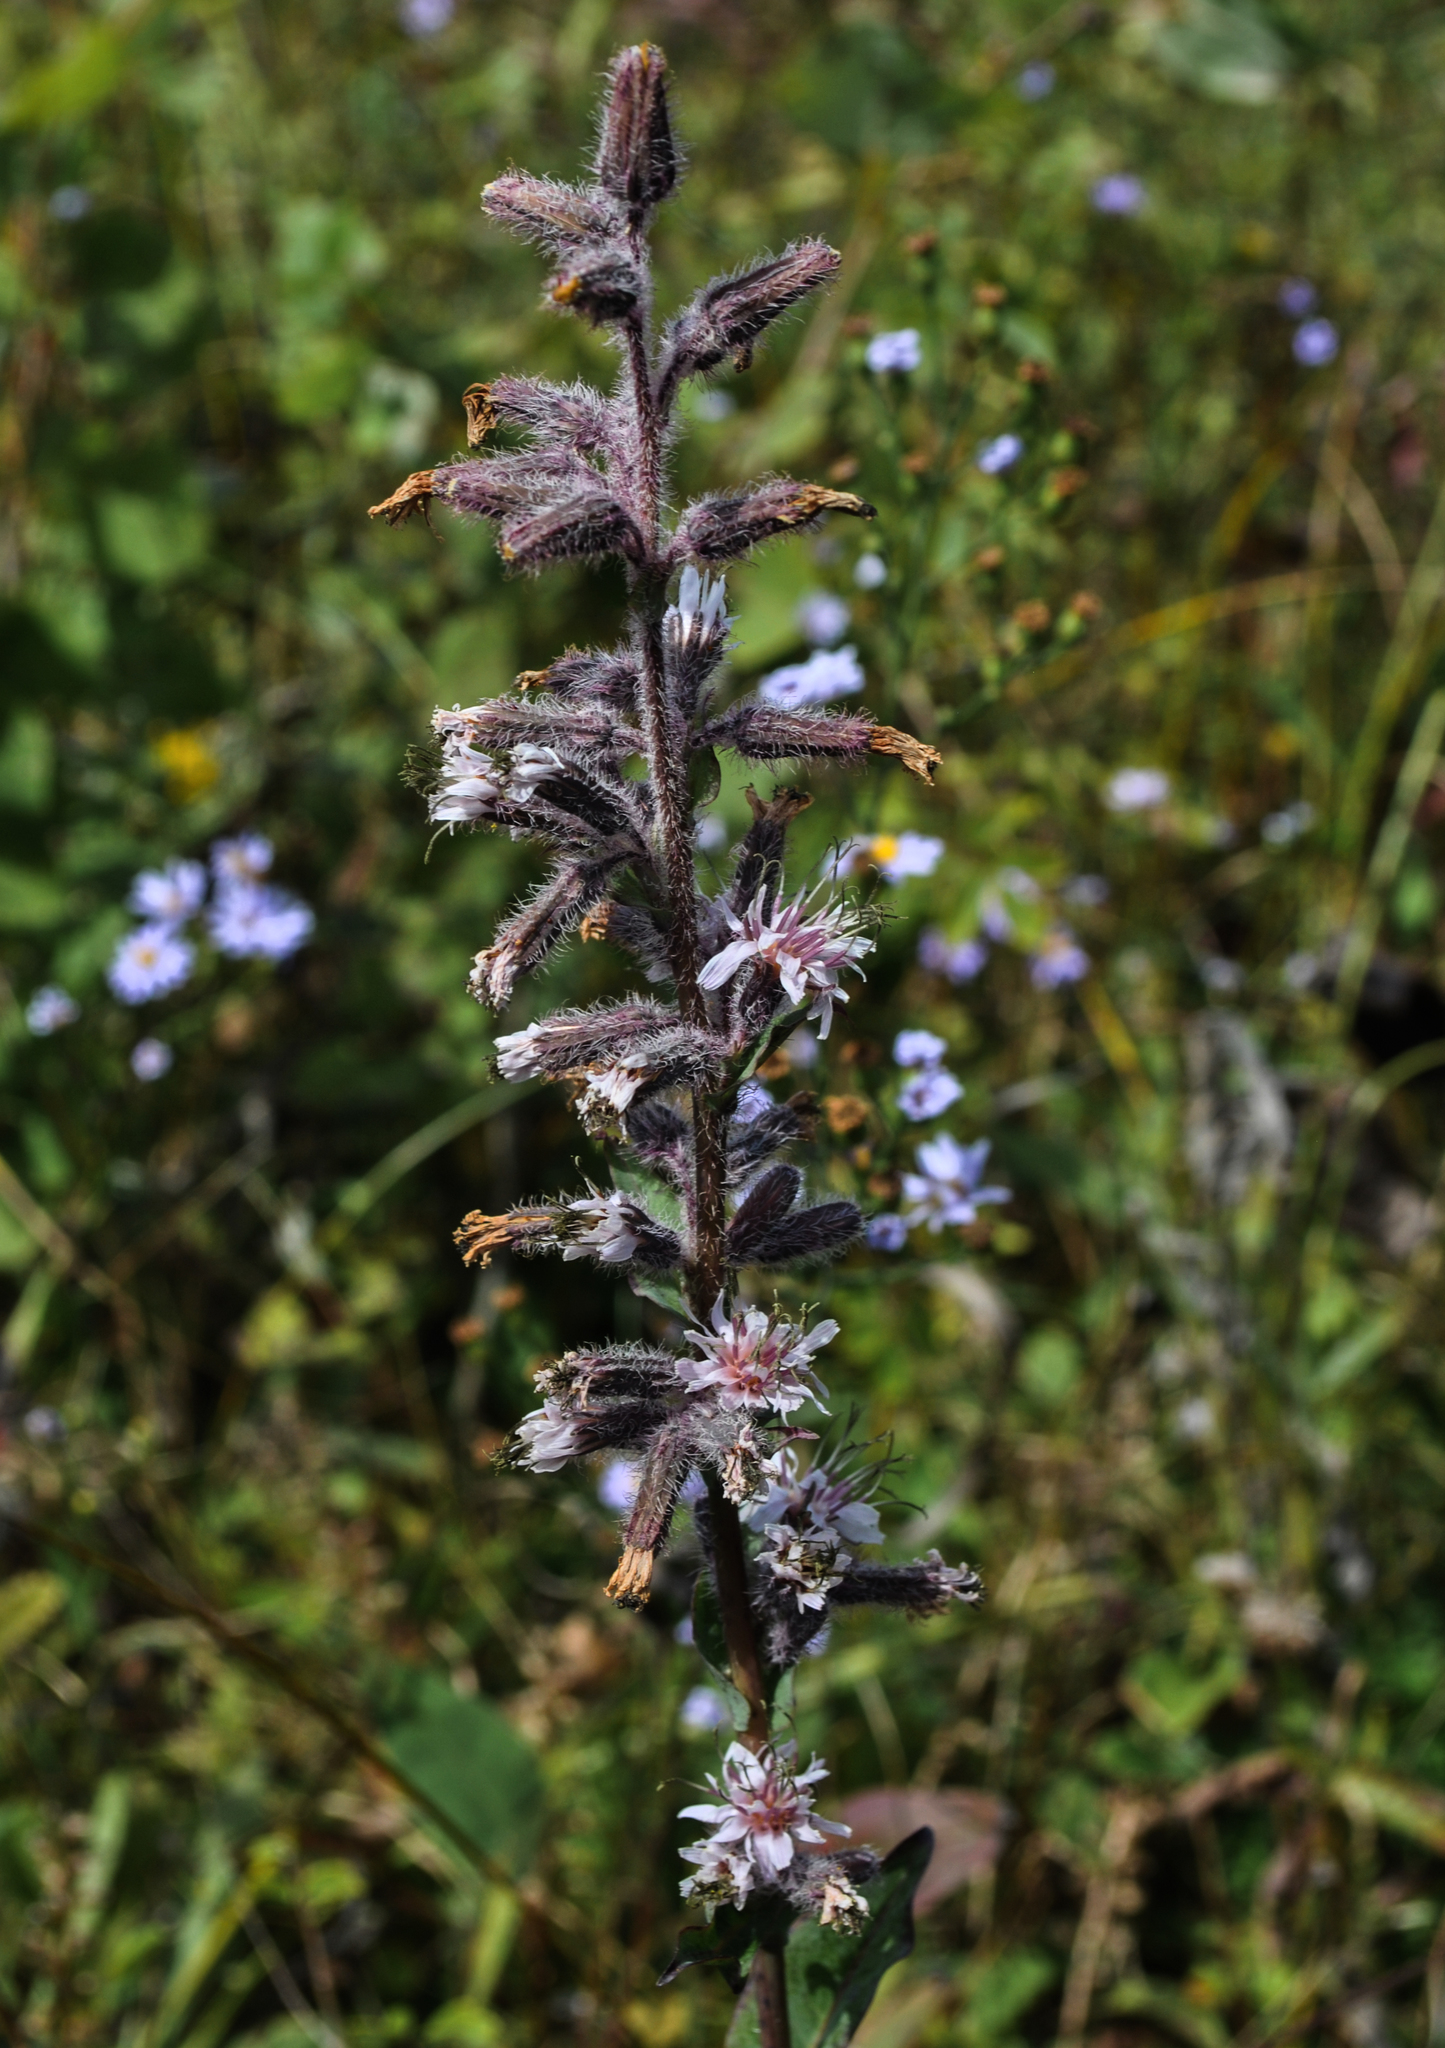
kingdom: Plantae
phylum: Tracheophyta
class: Magnoliopsida
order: Asterales
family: Asteraceae
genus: Nabalus
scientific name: Nabalus racemosus
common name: Glaucous white lettuce
